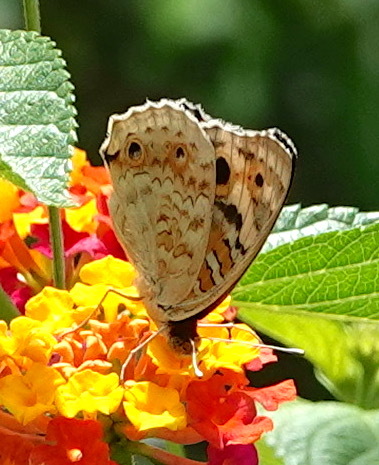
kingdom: Animalia
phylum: Arthropoda
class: Insecta
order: Lepidoptera
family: Nymphalidae
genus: Junonia
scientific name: Junonia orithya
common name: Blue pansy
